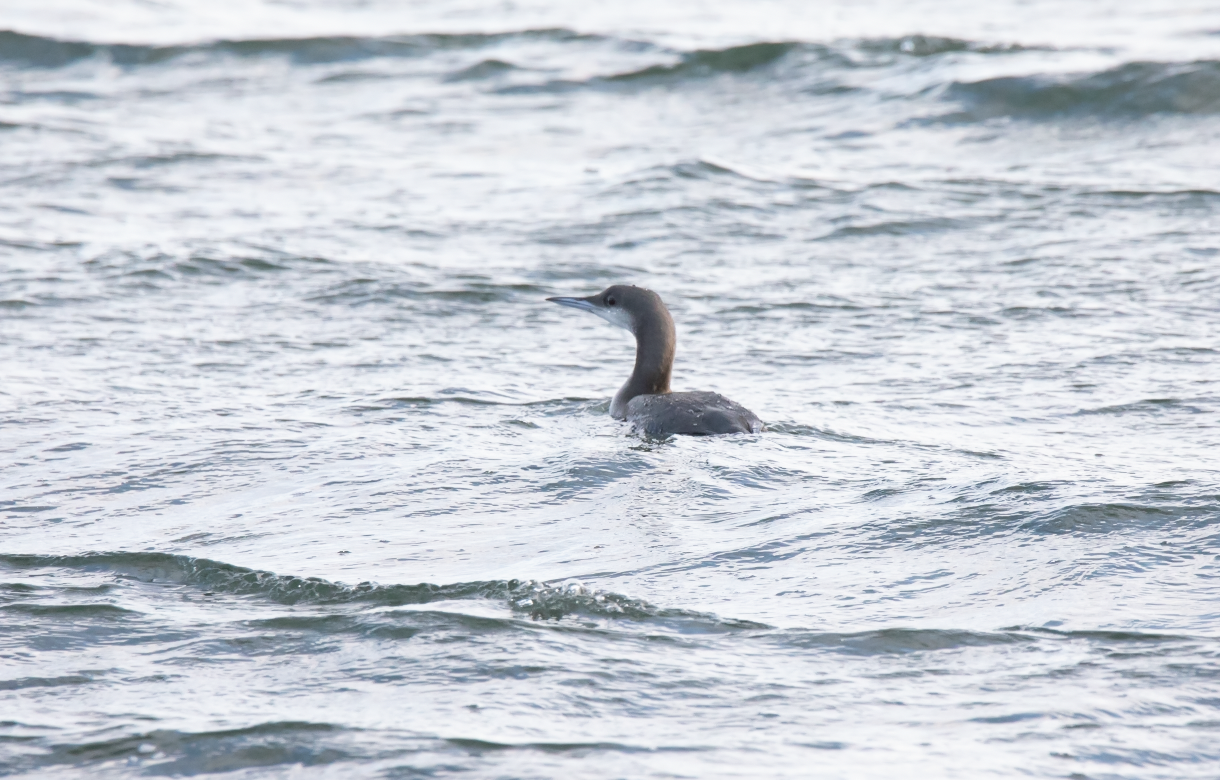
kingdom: Animalia
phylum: Chordata
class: Aves
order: Gaviiformes
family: Gaviidae
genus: Gavia
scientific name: Gavia arctica
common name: Black-throated loon
